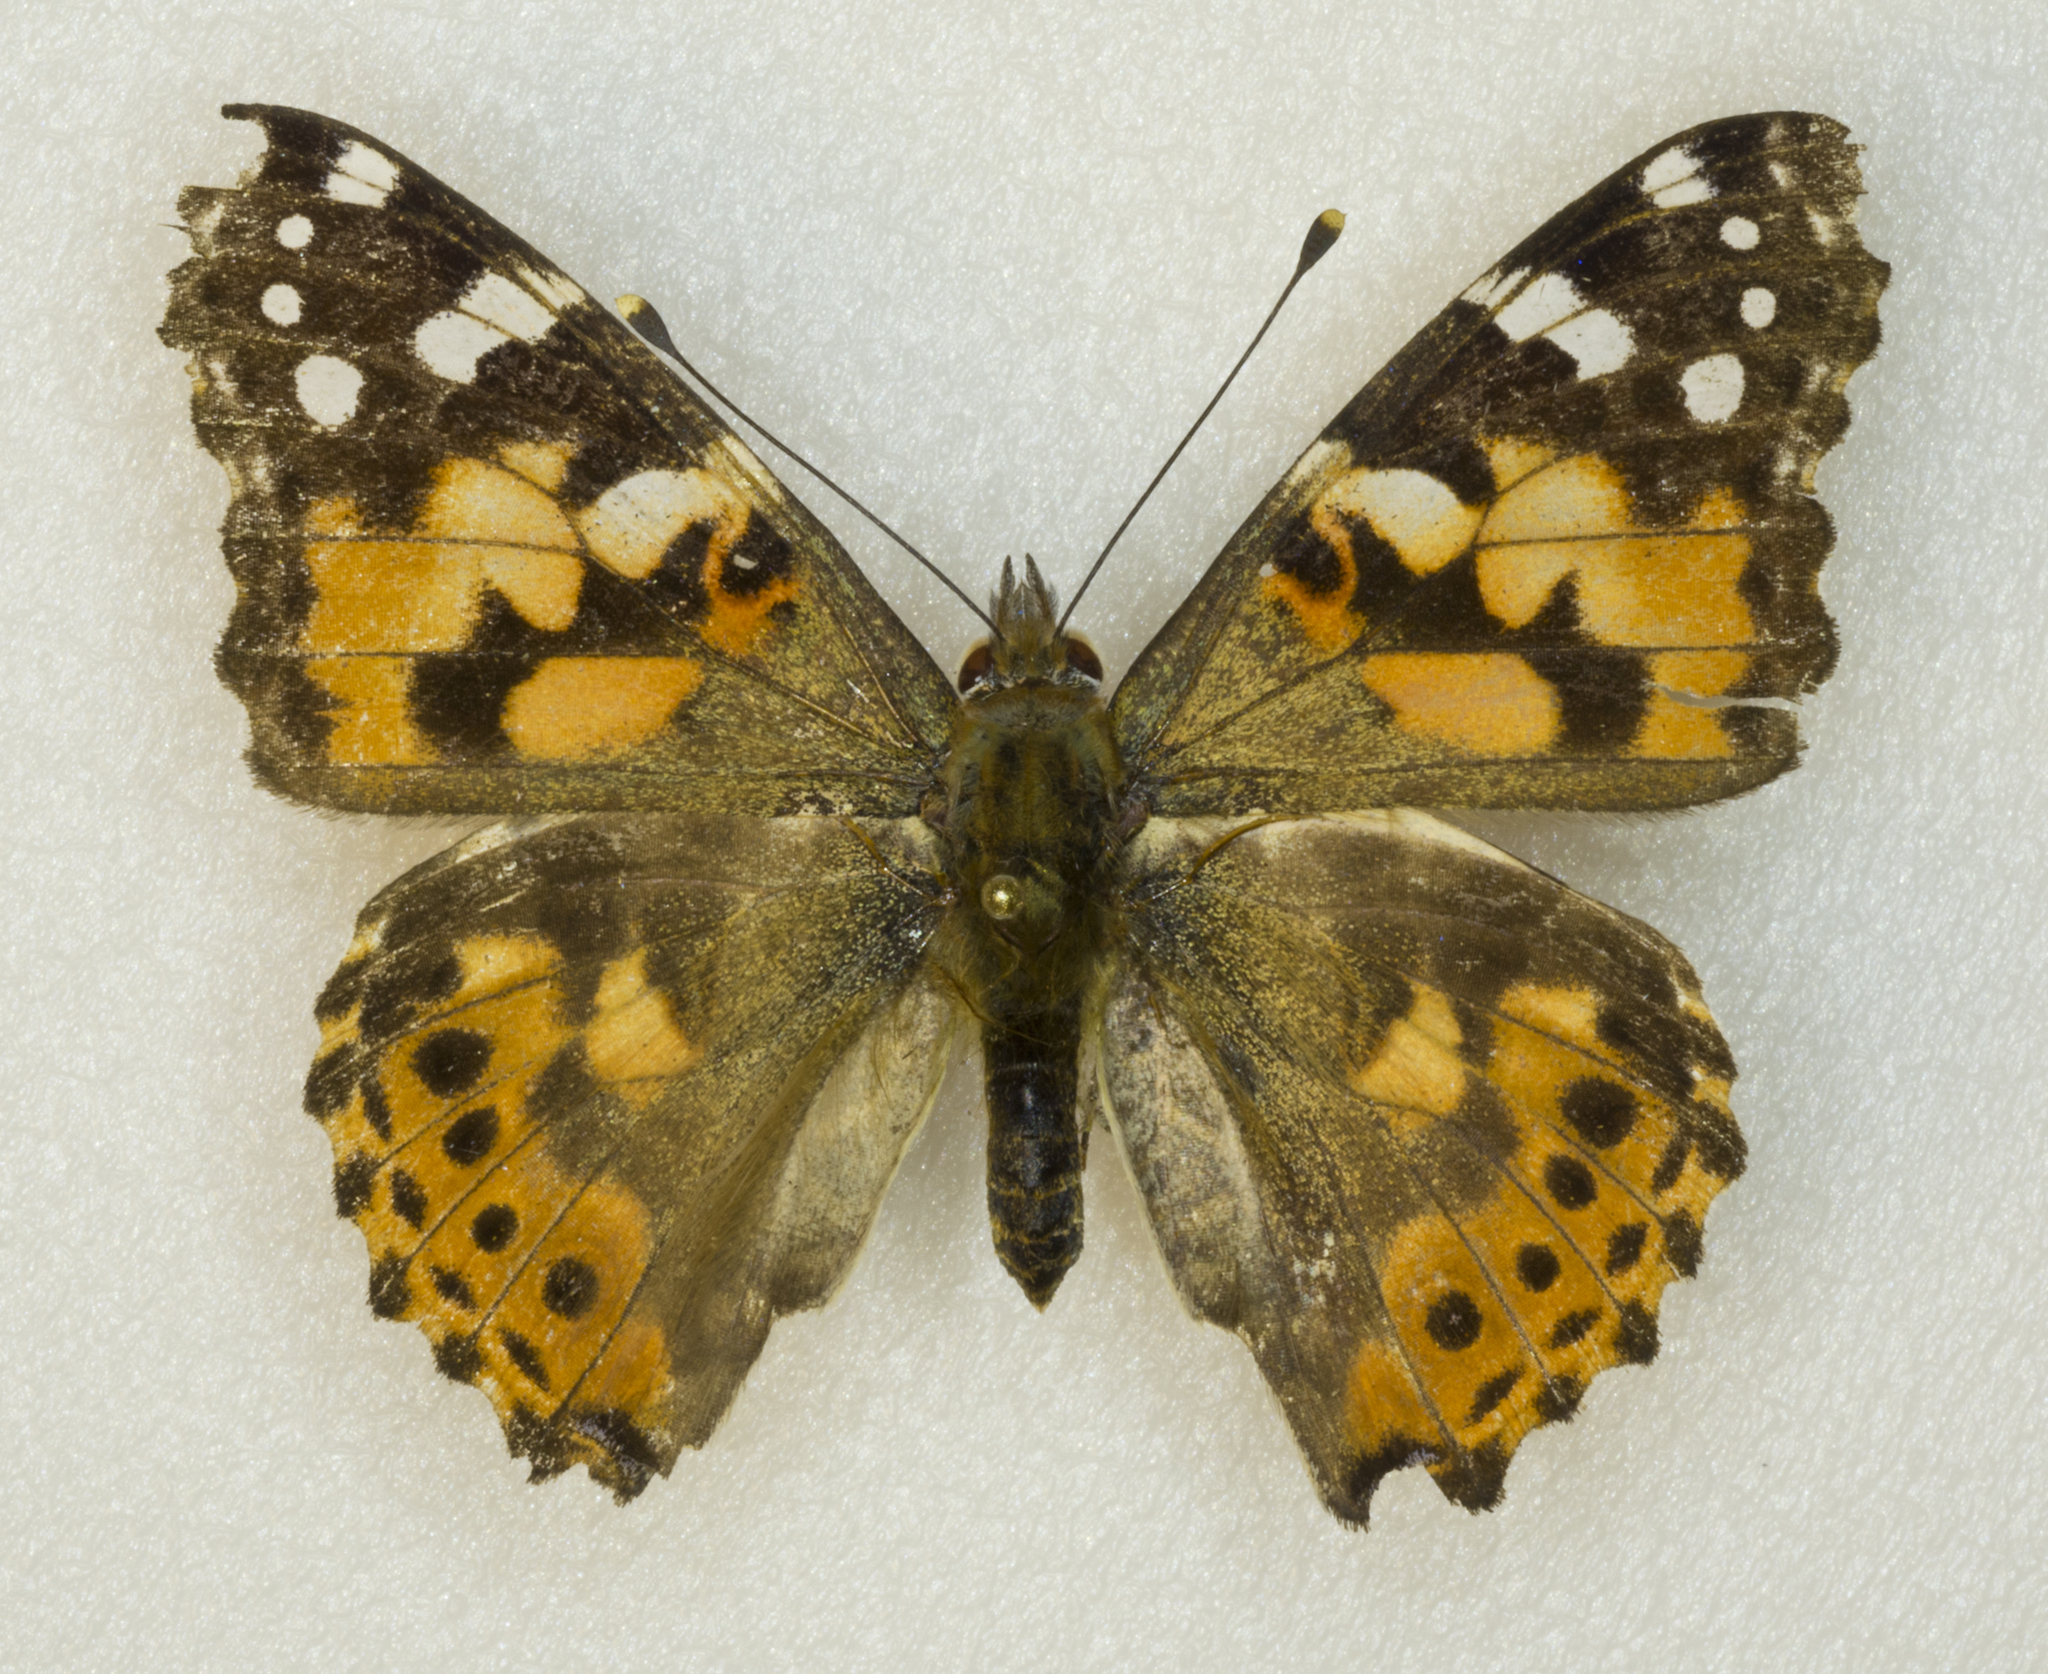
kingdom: Animalia
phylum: Arthropoda
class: Insecta
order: Lepidoptera
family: Nymphalidae
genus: Vanessa
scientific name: Vanessa cardui
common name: Painted lady
